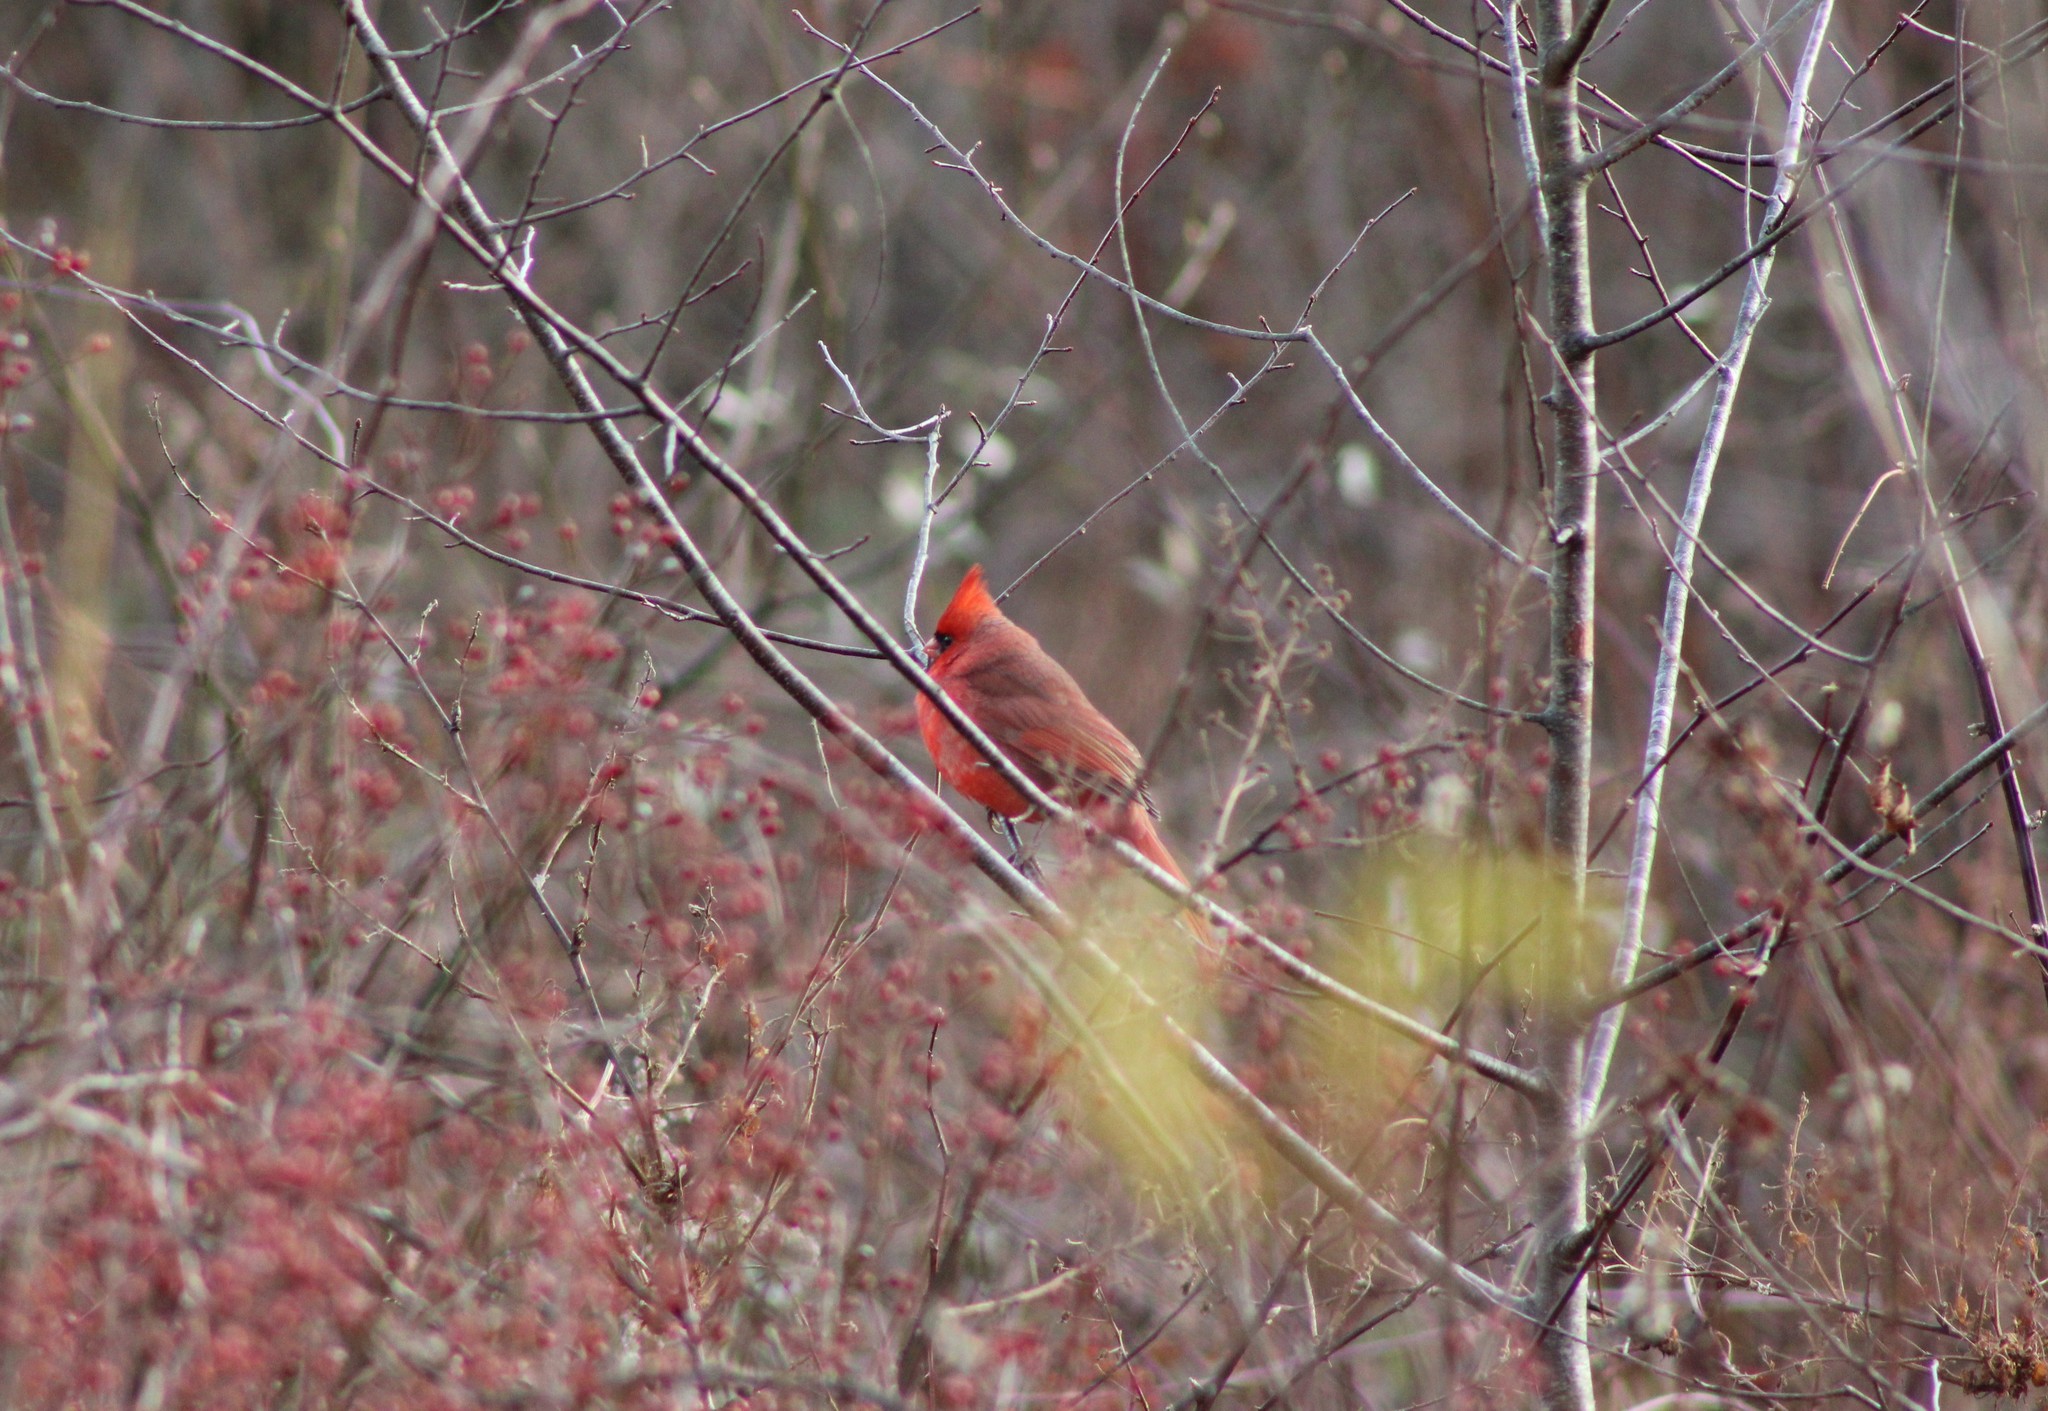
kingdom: Animalia
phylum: Chordata
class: Aves
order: Passeriformes
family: Cardinalidae
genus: Cardinalis
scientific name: Cardinalis cardinalis
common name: Northern cardinal
